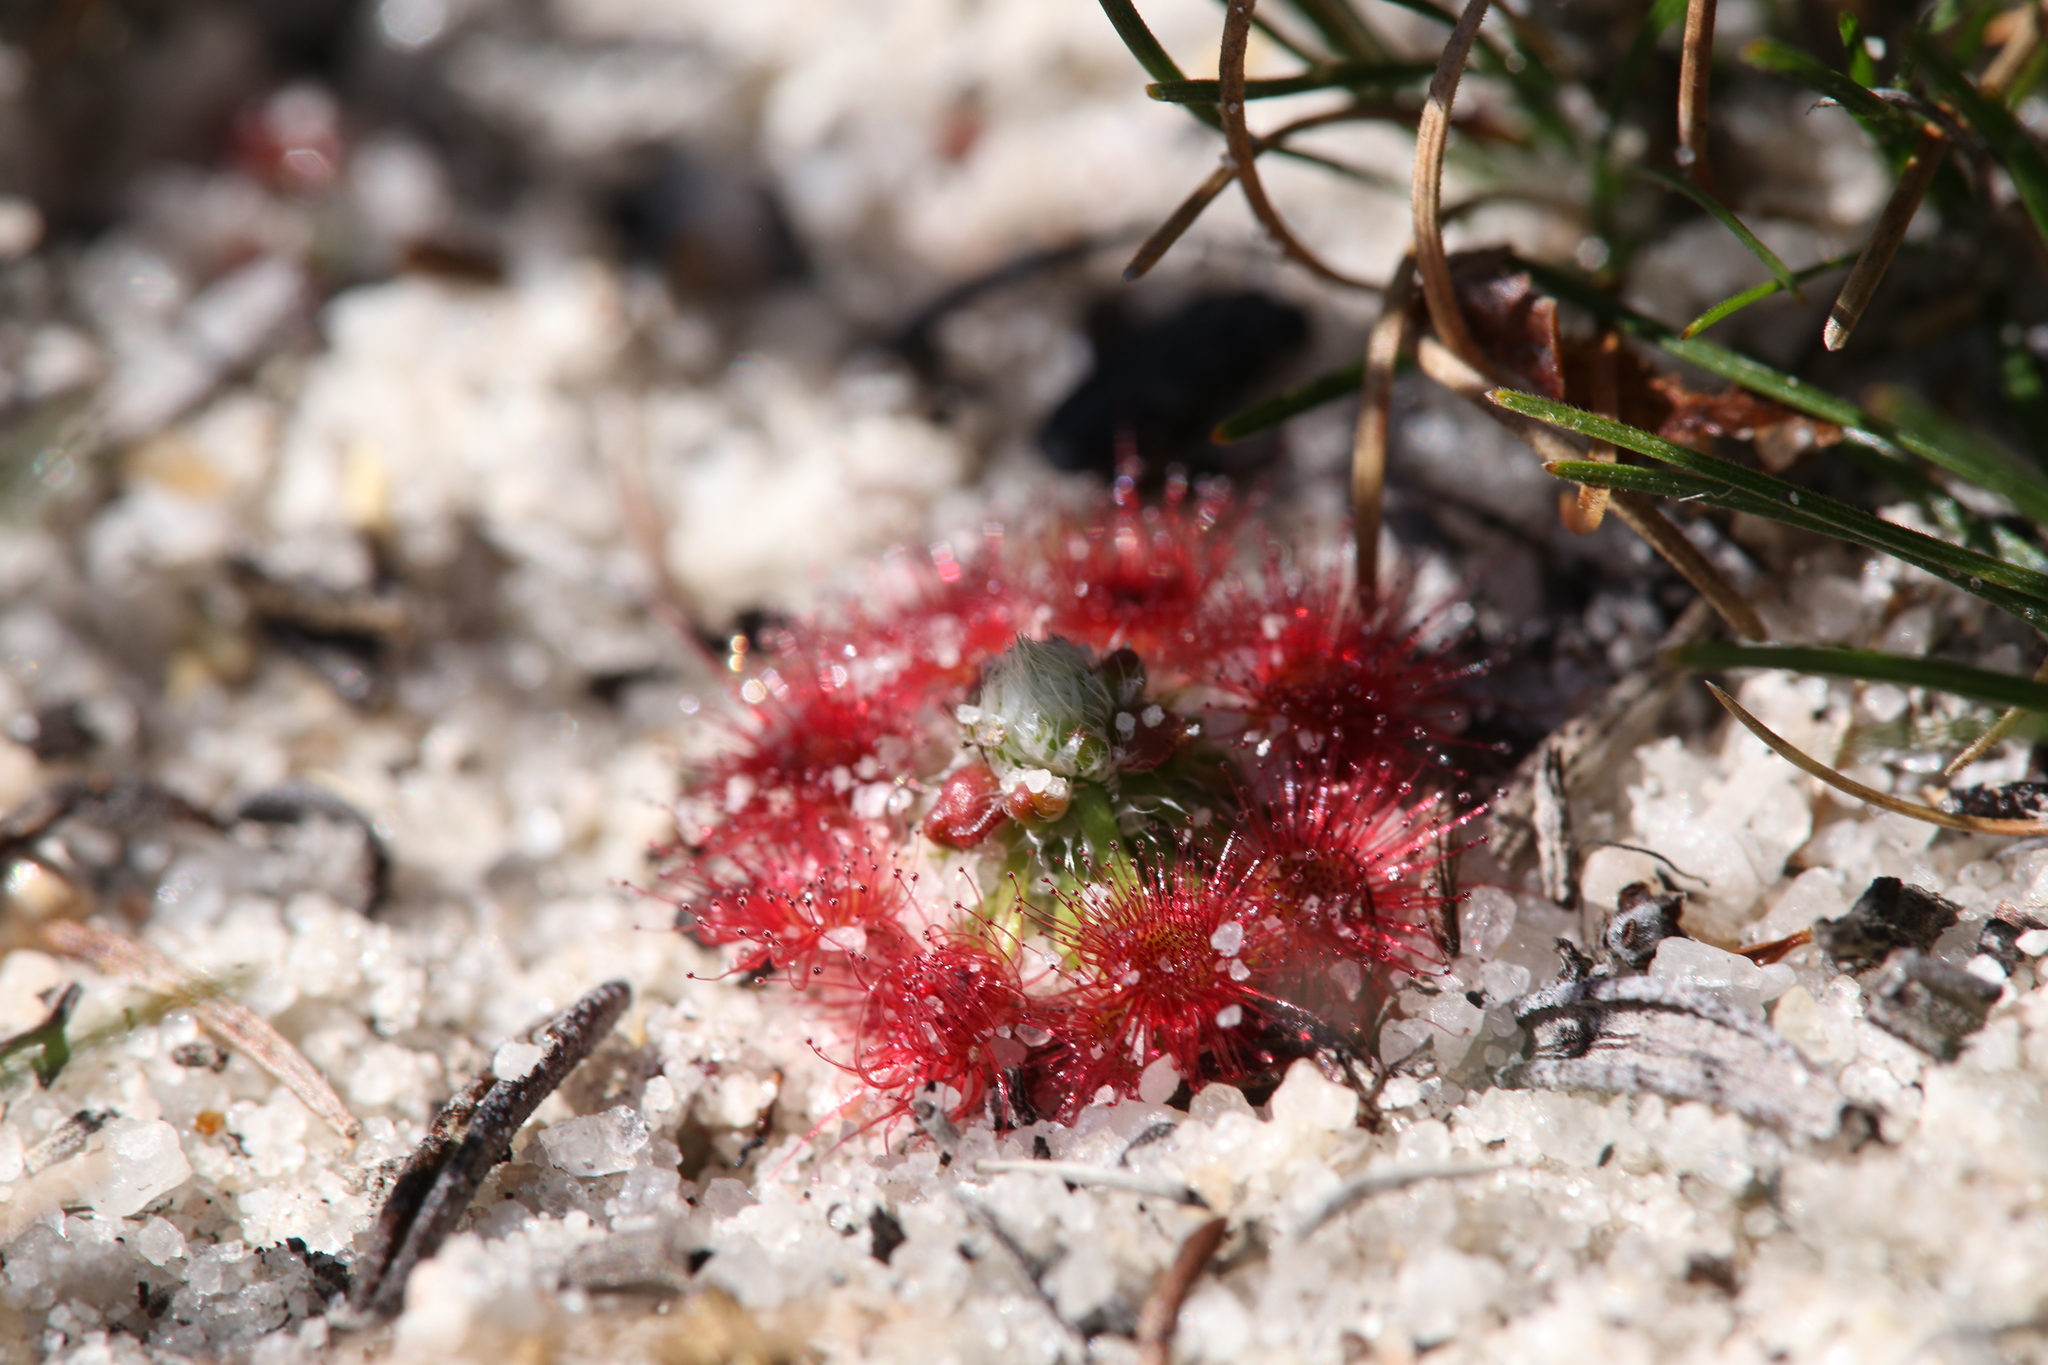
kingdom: Plantae
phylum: Tracheophyta
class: Magnoliopsida
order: Caryophyllales
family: Droseraceae
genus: Drosera
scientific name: Drosera eneabba
